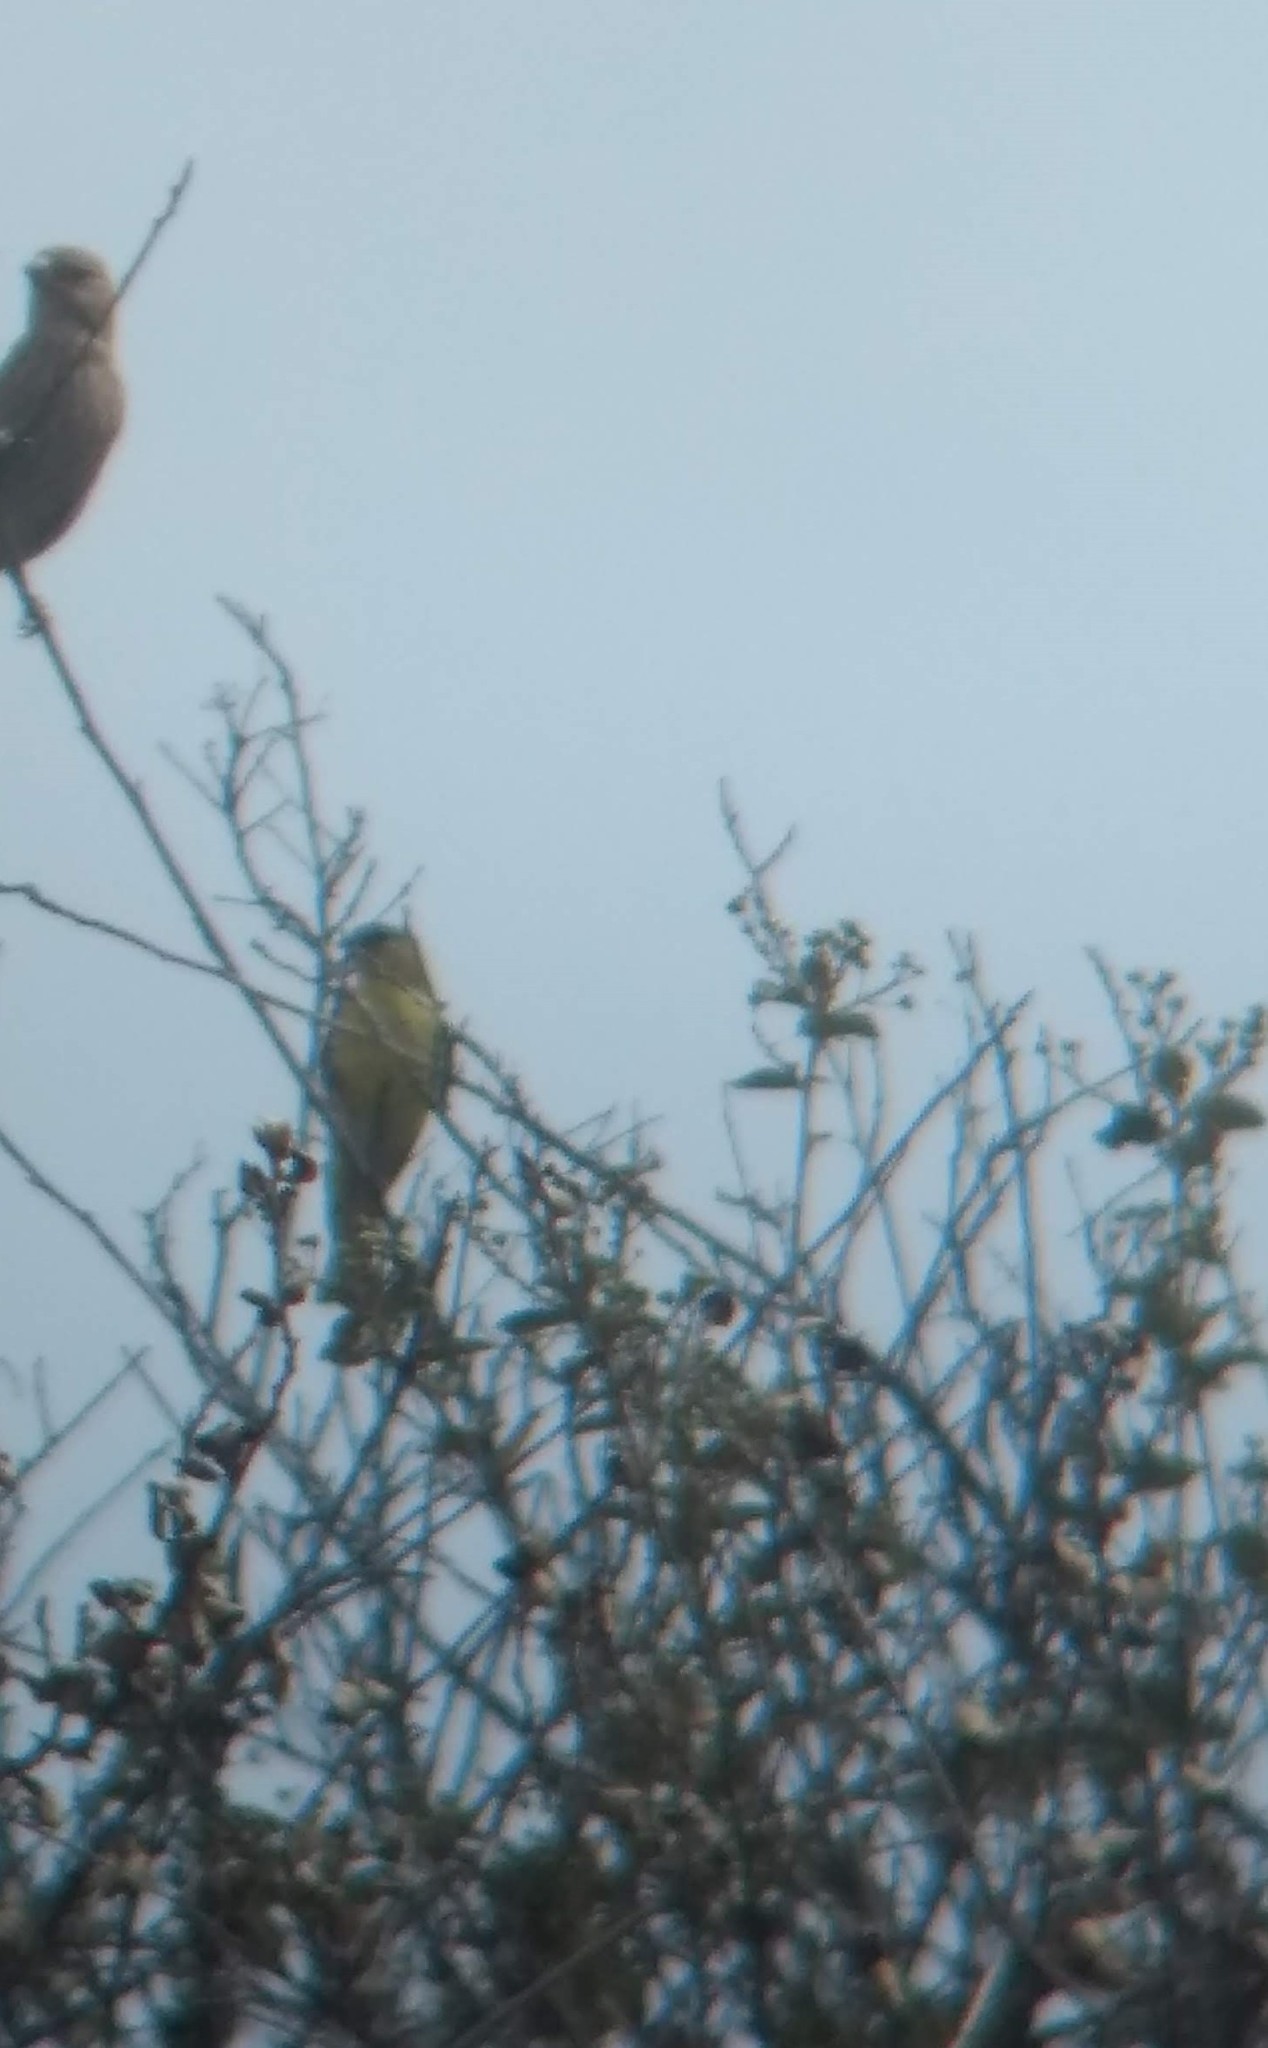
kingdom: Animalia
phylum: Chordata
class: Aves
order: Passeriformes
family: Fringillidae
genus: Spinus
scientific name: Spinus psaltria
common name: Lesser goldfinch
